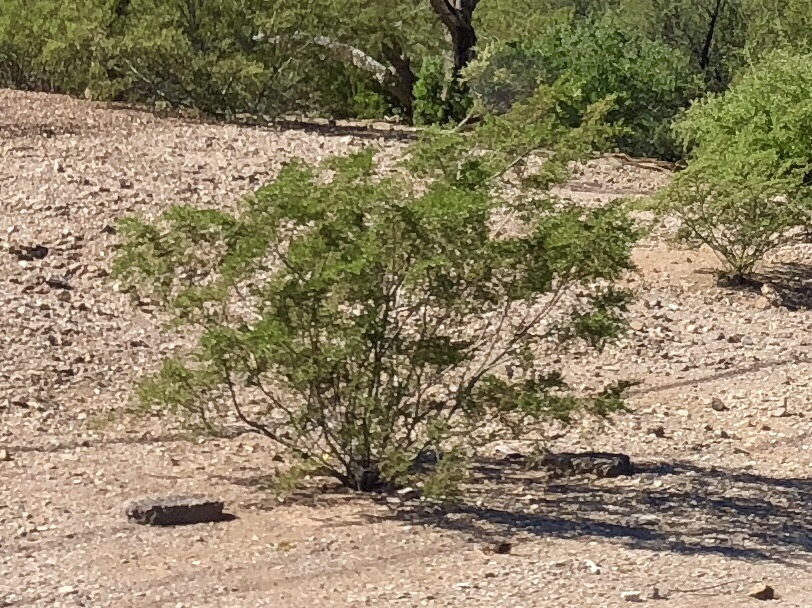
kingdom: Plantae
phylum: Tracheophyta
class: Magnoliopsida
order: Zygophyllales
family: Zygophyllaceae
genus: Larrea
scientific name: Larrea tridentata
